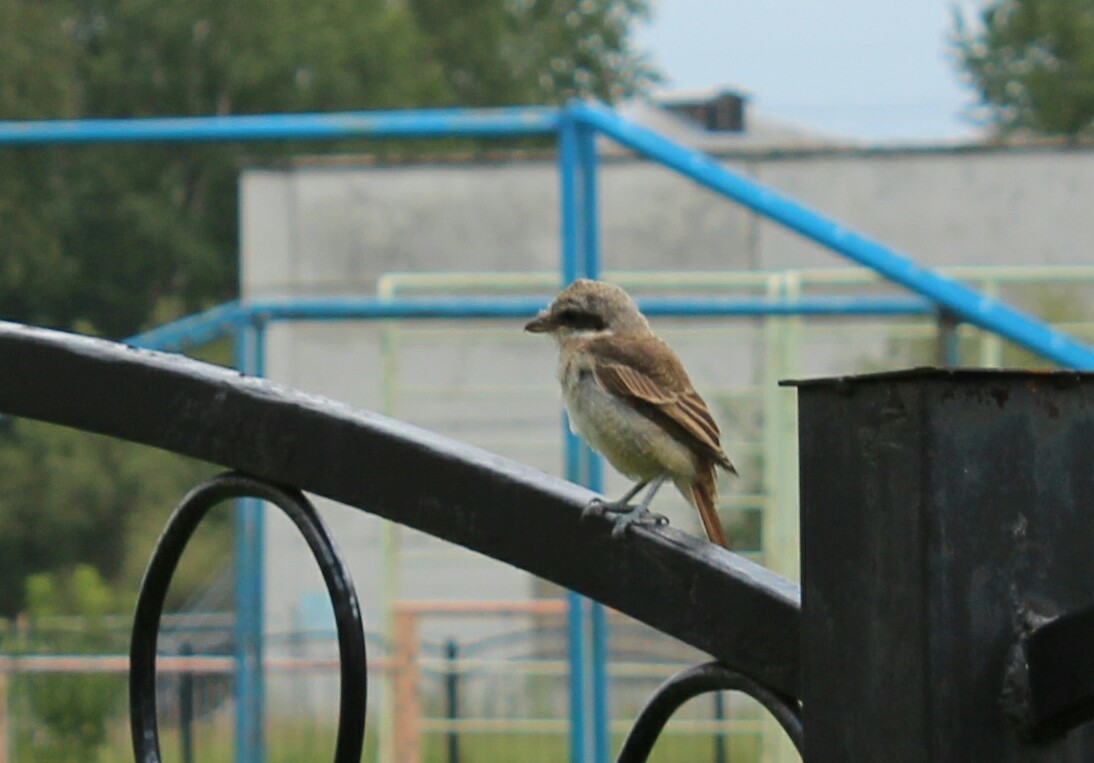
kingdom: Animalia
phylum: Chordata
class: Aves
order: Passeriformes
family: Laniidae
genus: Lanius
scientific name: Lanius cristatus
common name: Brown shrike
